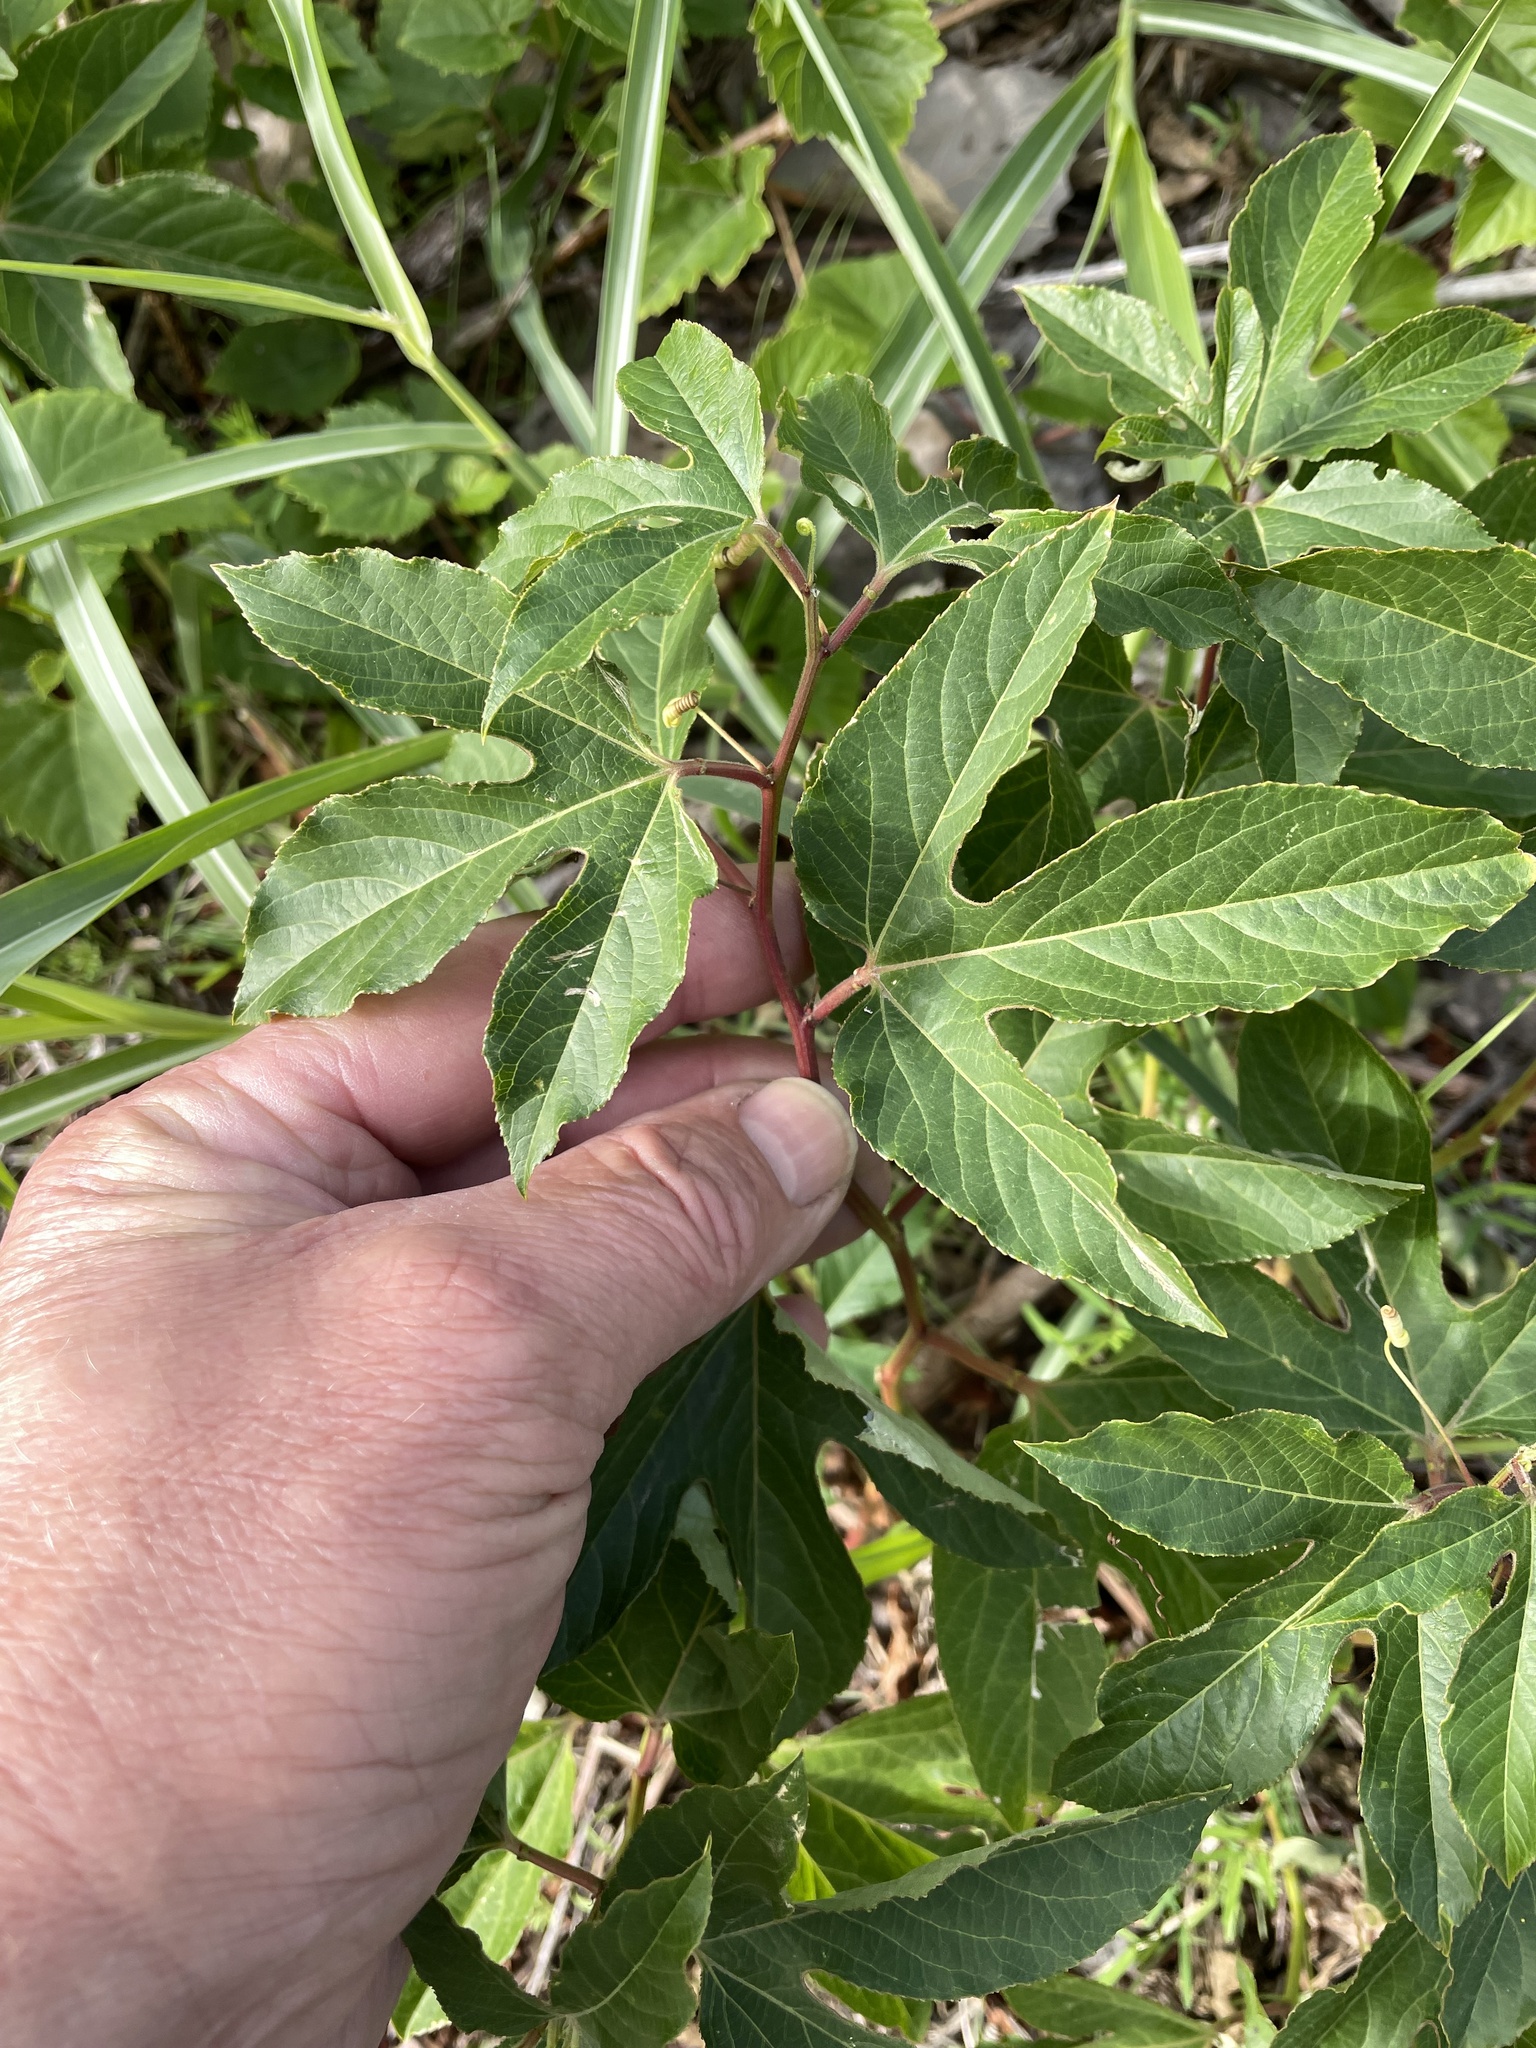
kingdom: Plantae
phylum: Tracheophyta
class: Magnoliopsida
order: Malpighiales
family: Passifloraceae
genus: Passiflora
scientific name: Passiflora incarnata
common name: Apricot-vine
